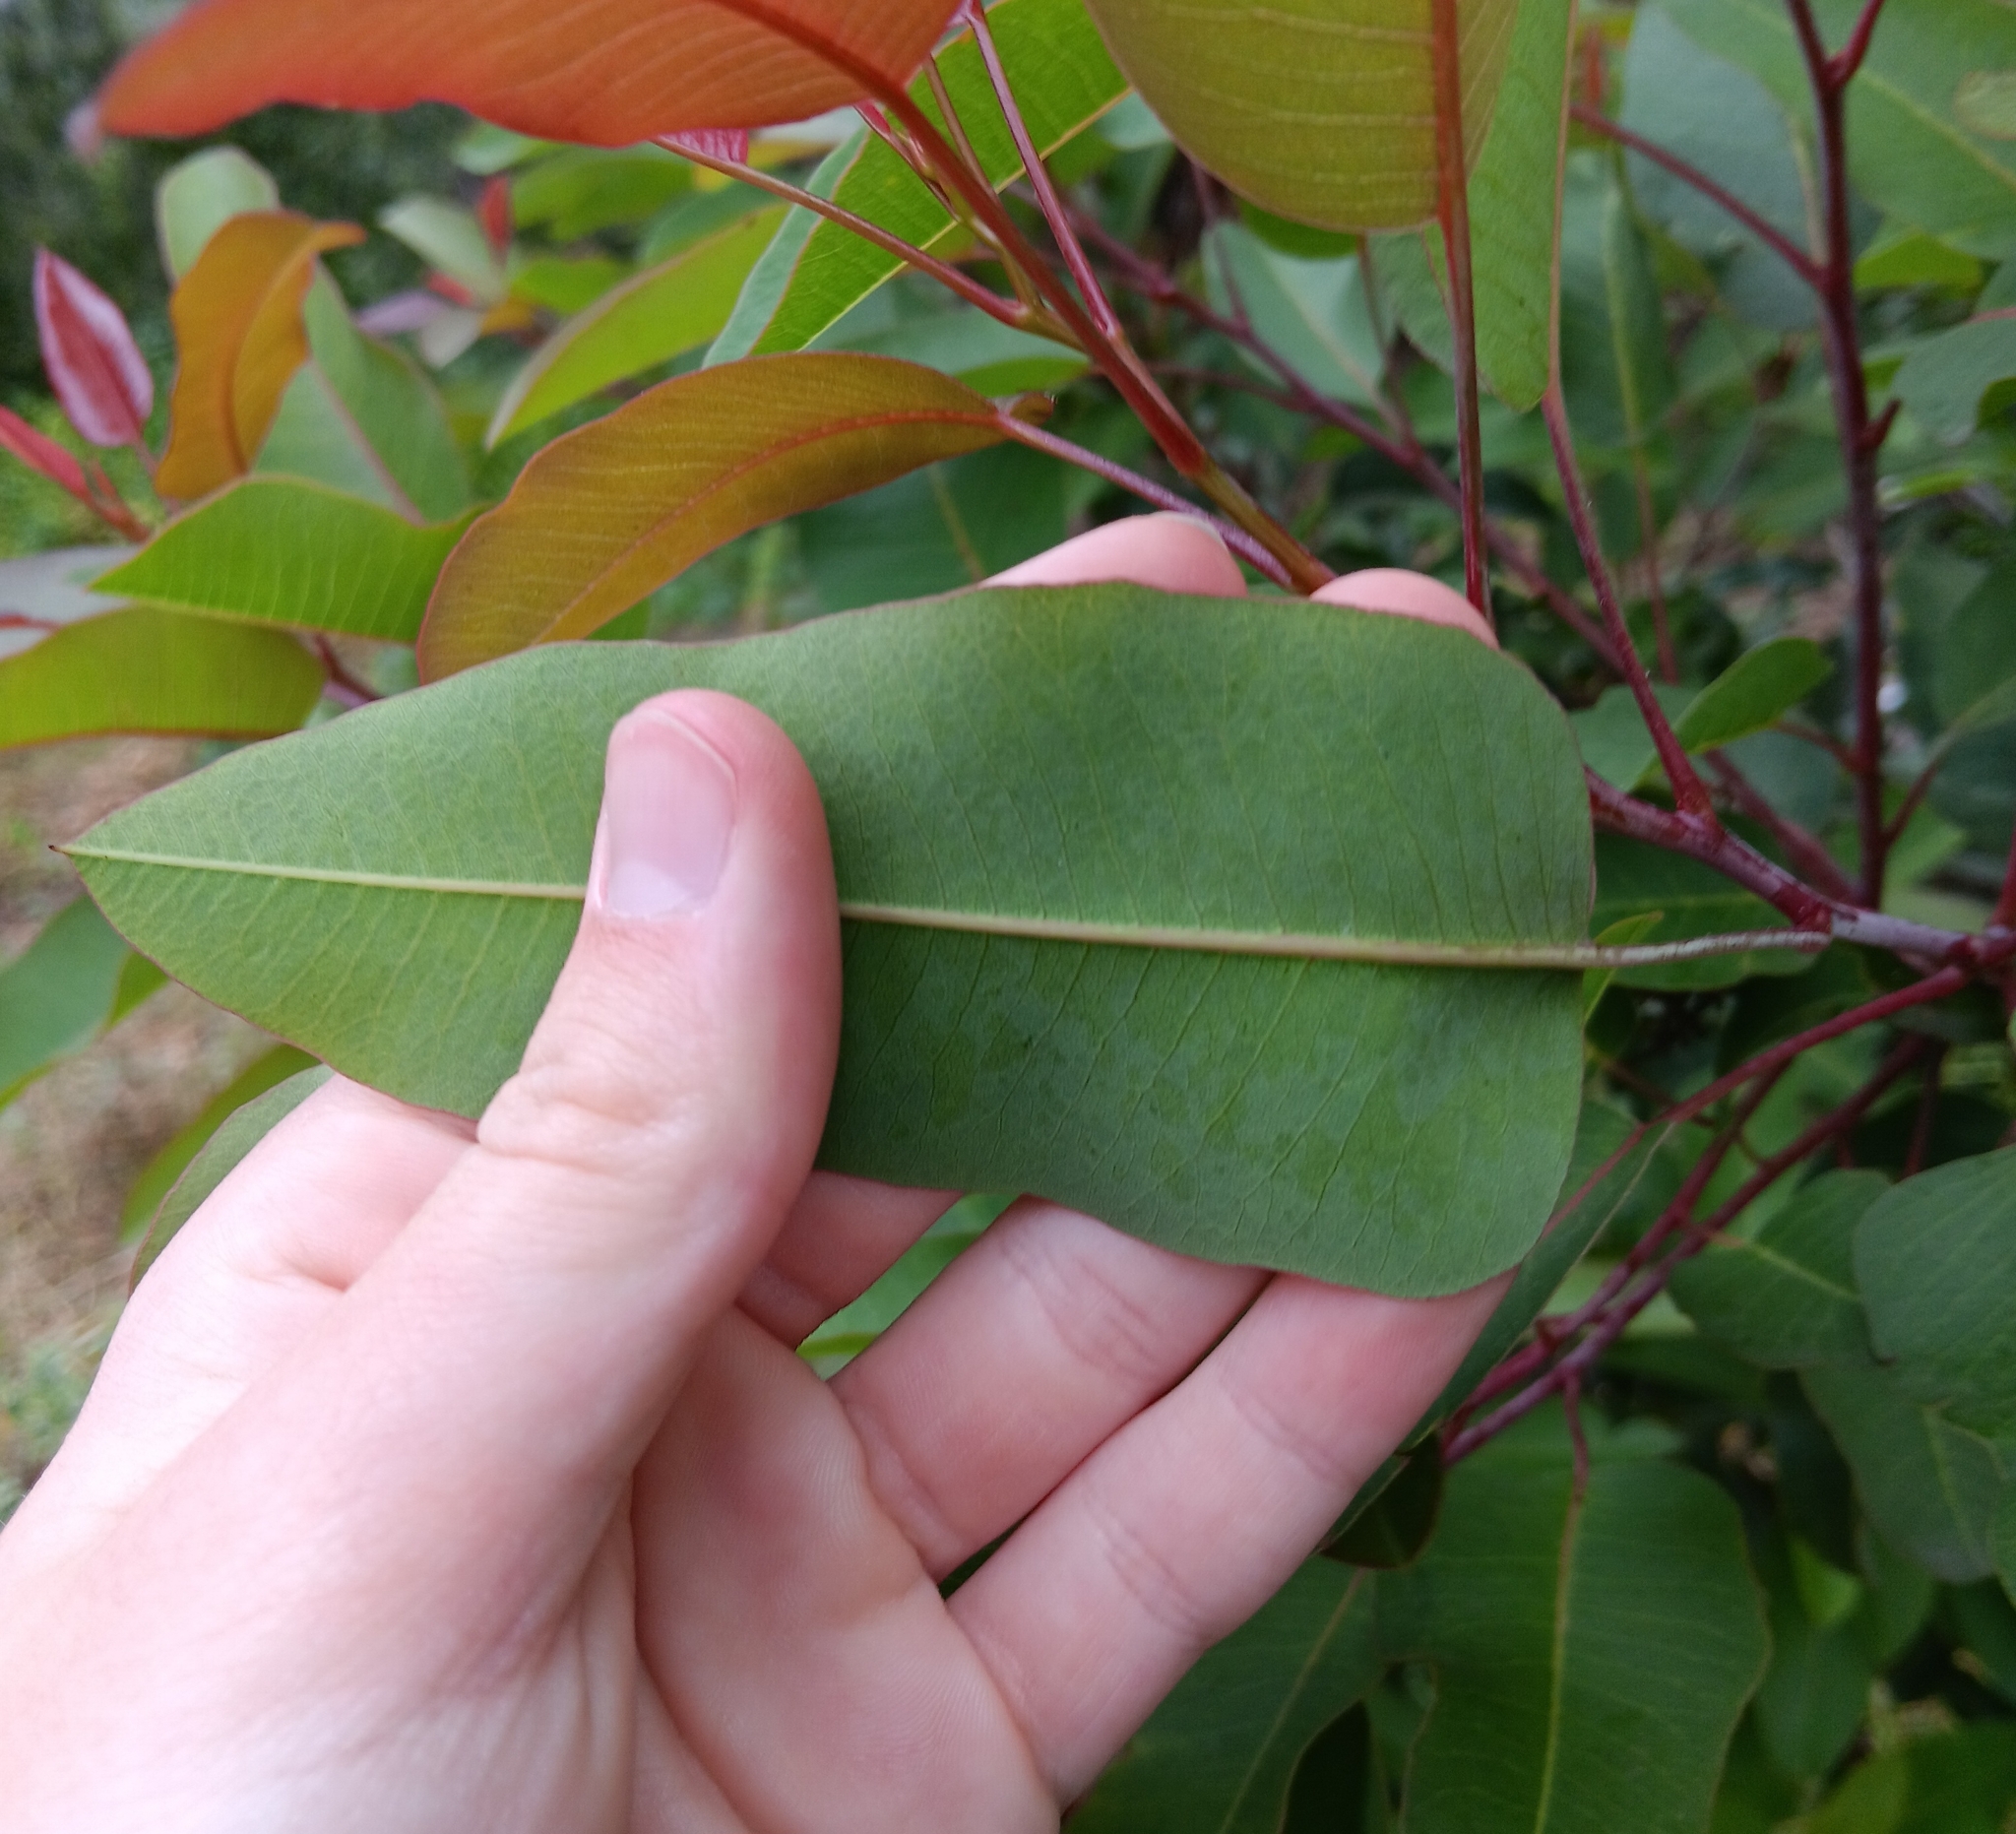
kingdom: Plantae
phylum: Tracheophyta
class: Magnoliopsida
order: Sapindales
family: Anacardiaceae
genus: Malosma
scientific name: Malosma laurina
